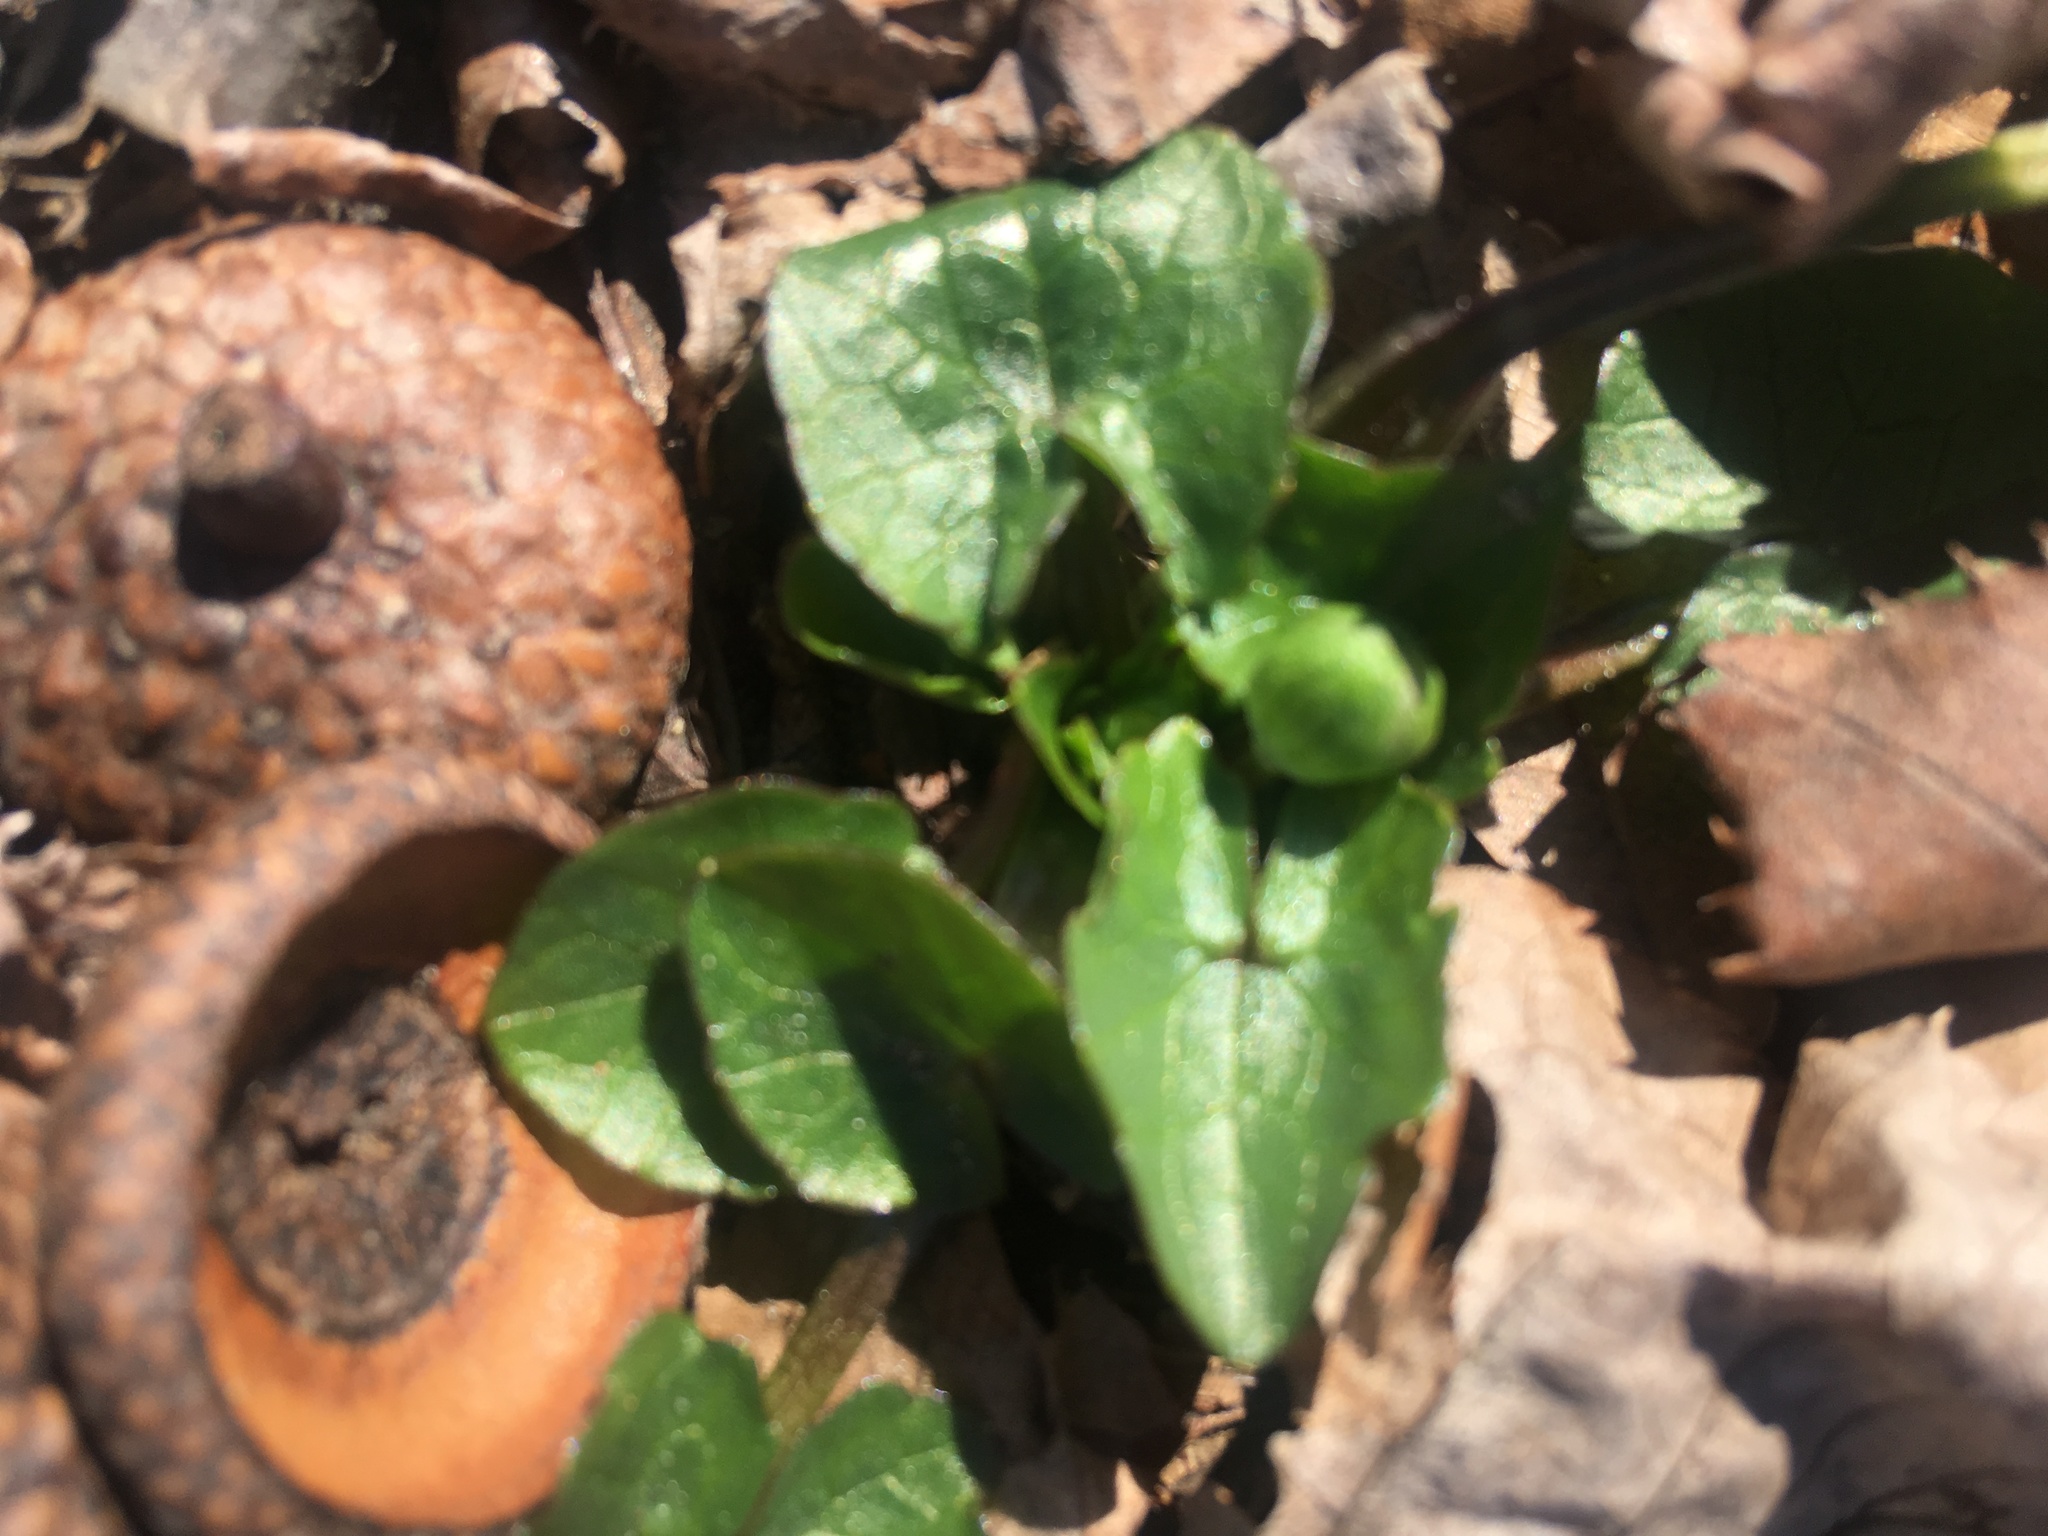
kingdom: Plantae
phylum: Tracheophyta
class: Magnoliopsida
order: Ranunculales
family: Ranunculaceae
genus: Ficaria
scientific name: Ficaria verna
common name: Lesser celandine
